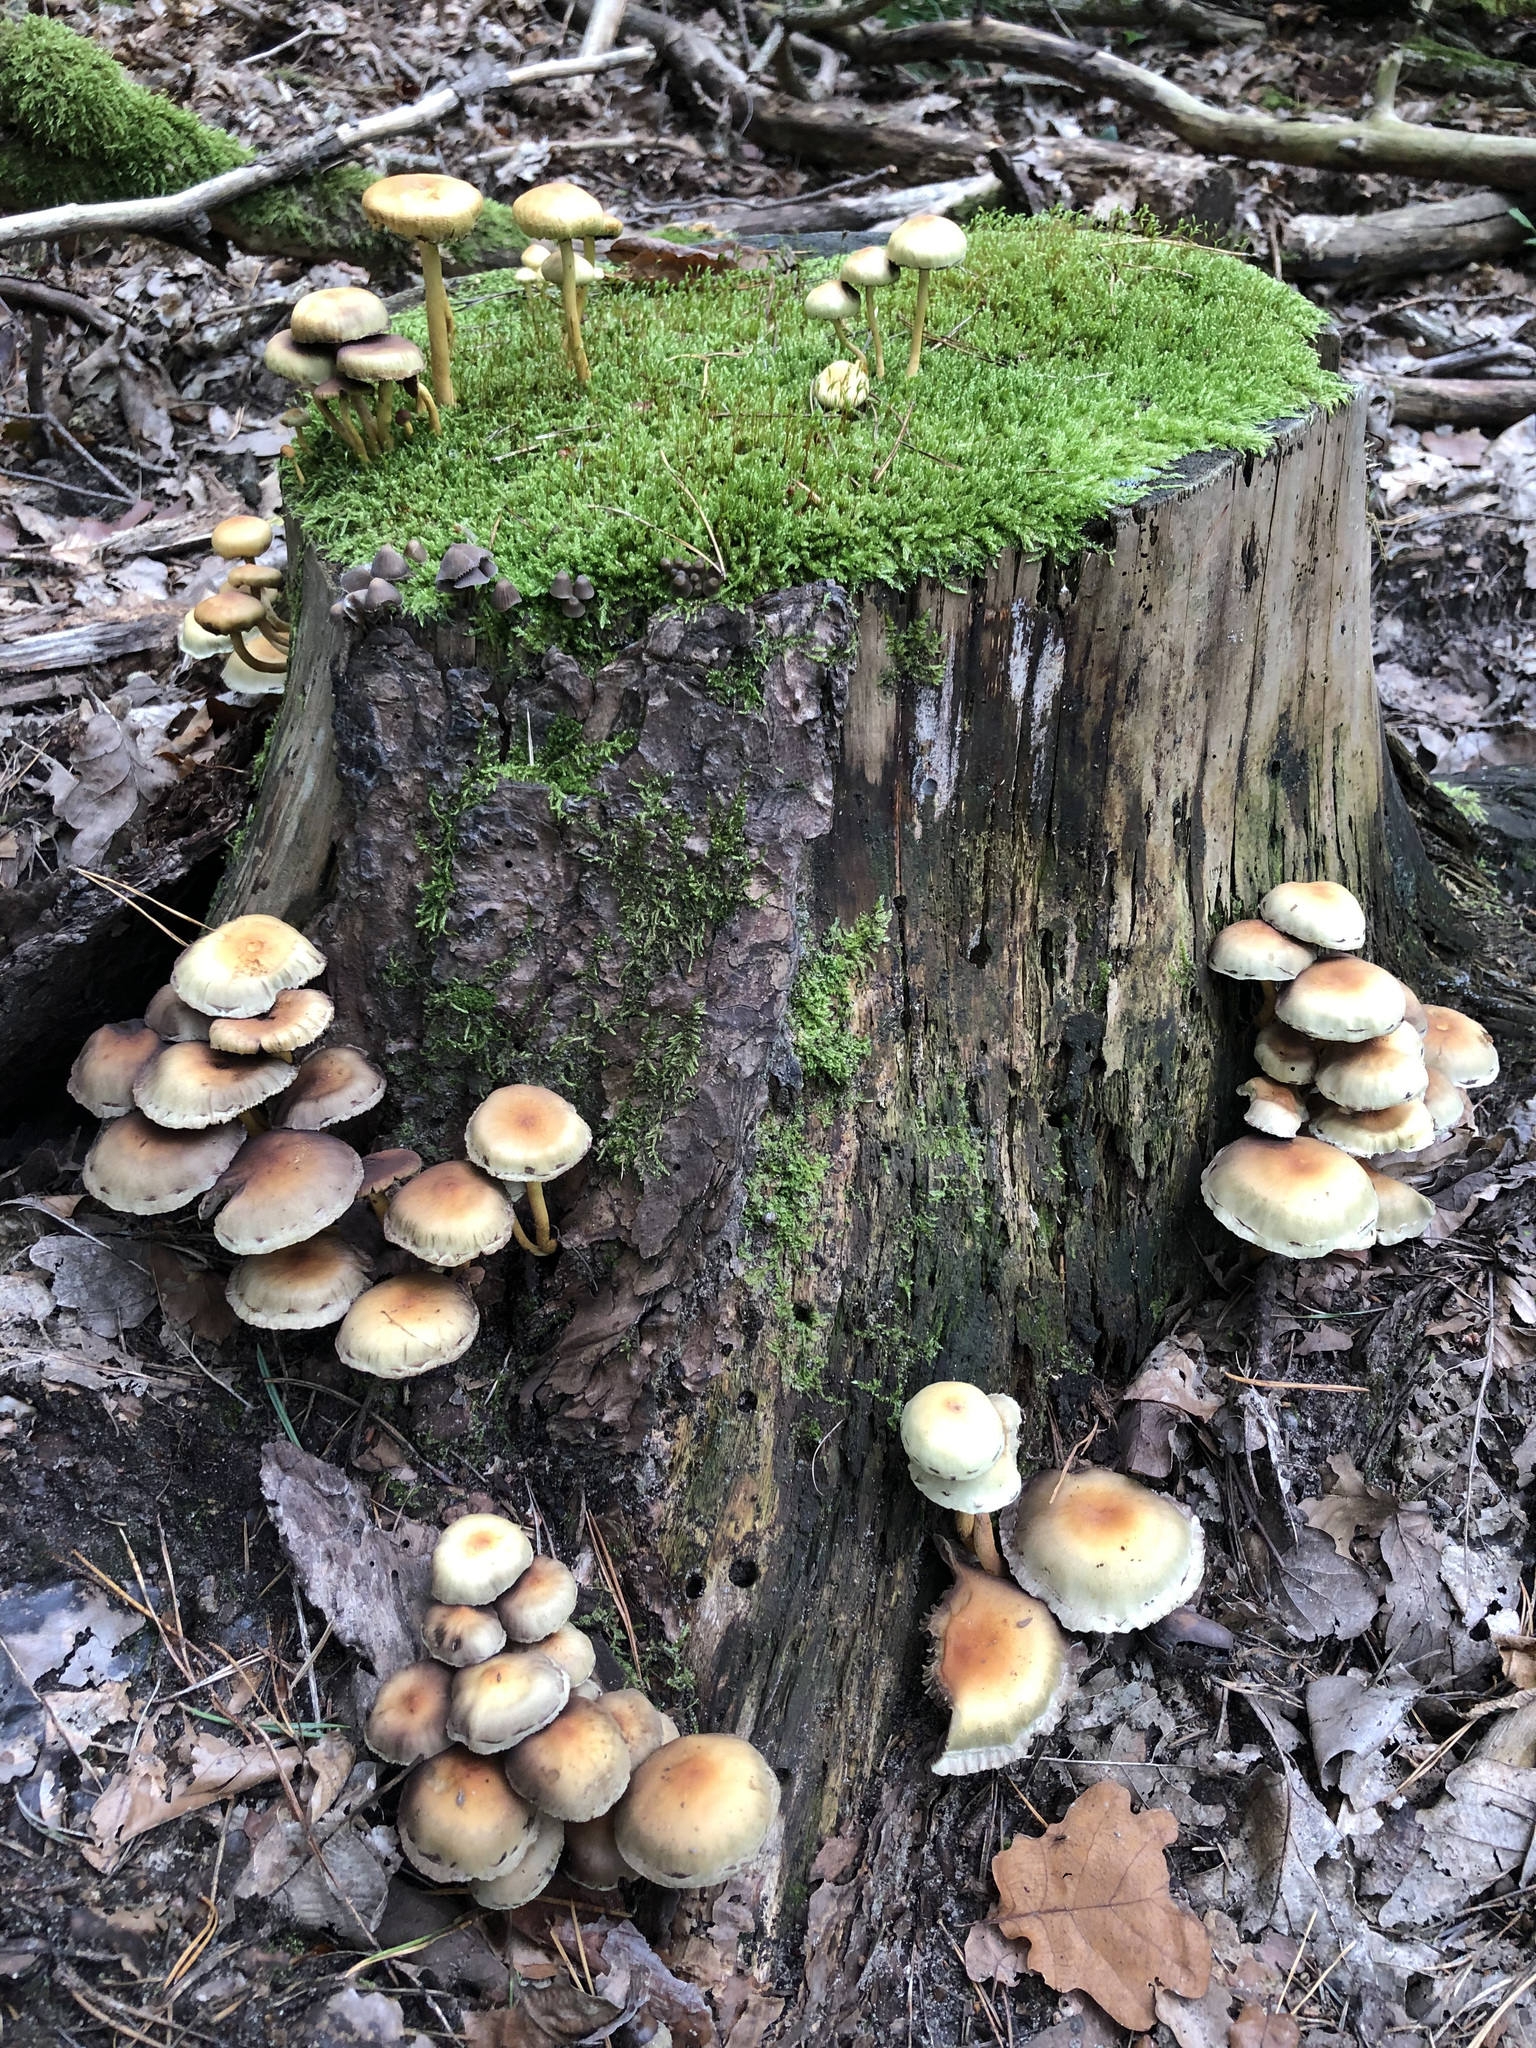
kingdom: Fungi
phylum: Basidiomycota
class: Agaricomycetes
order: Agaricales
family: Strophariaceae
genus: Hypholoma
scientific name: Hypholoma fasciculare
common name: Sulphur tuft
